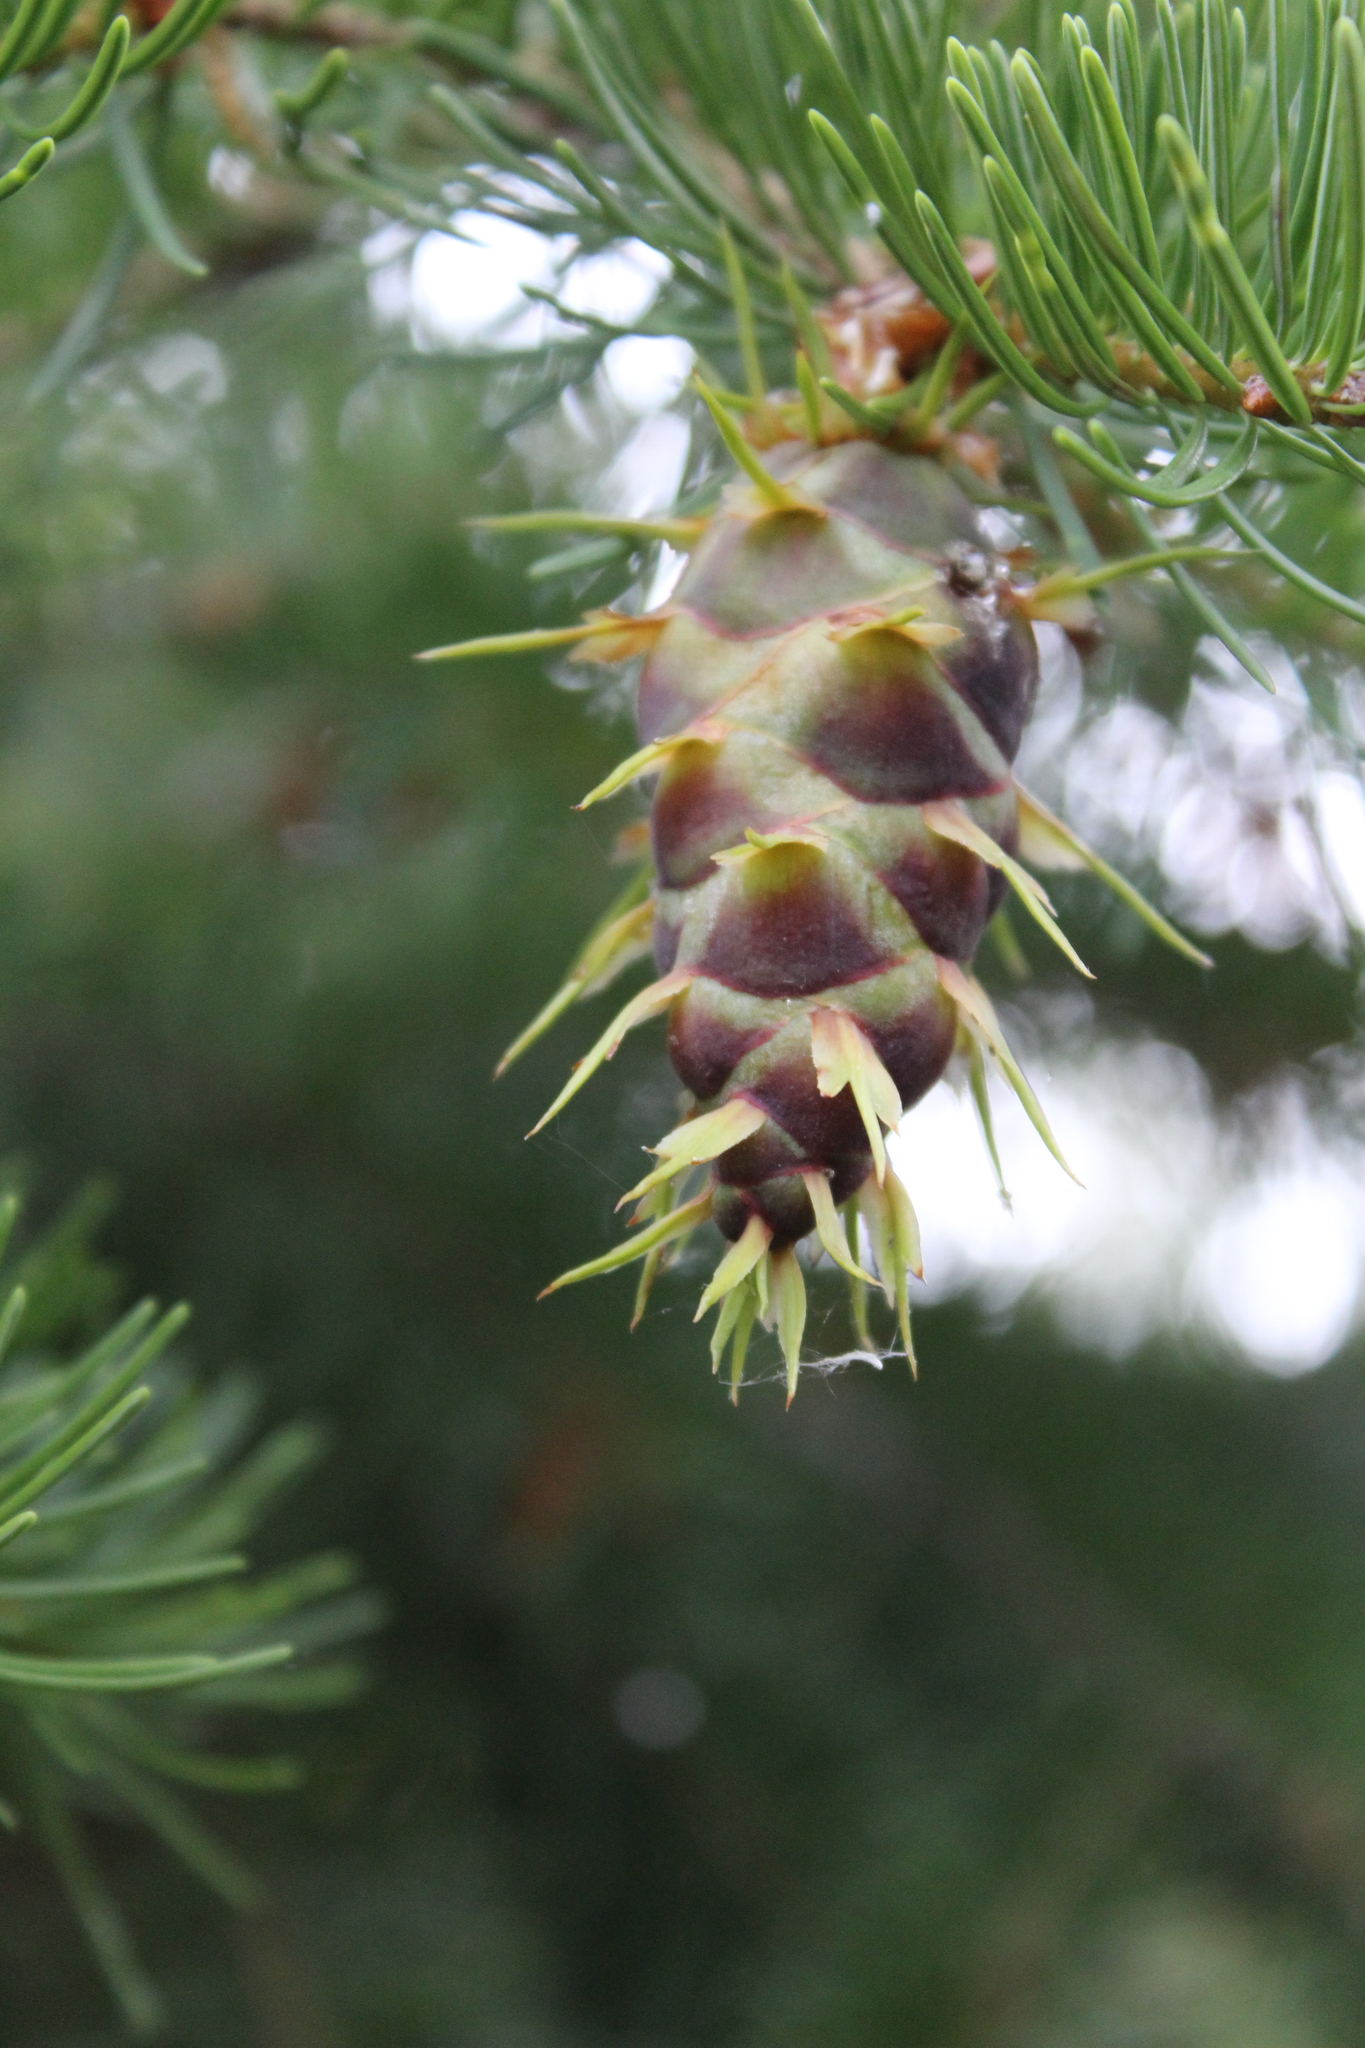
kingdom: Plantae
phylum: Tracheophyta
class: Pinopsida
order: Pinales
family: Pinaceae
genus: Pseudotsuga
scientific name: Pseudotsuga menziesii
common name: Douglas fir
